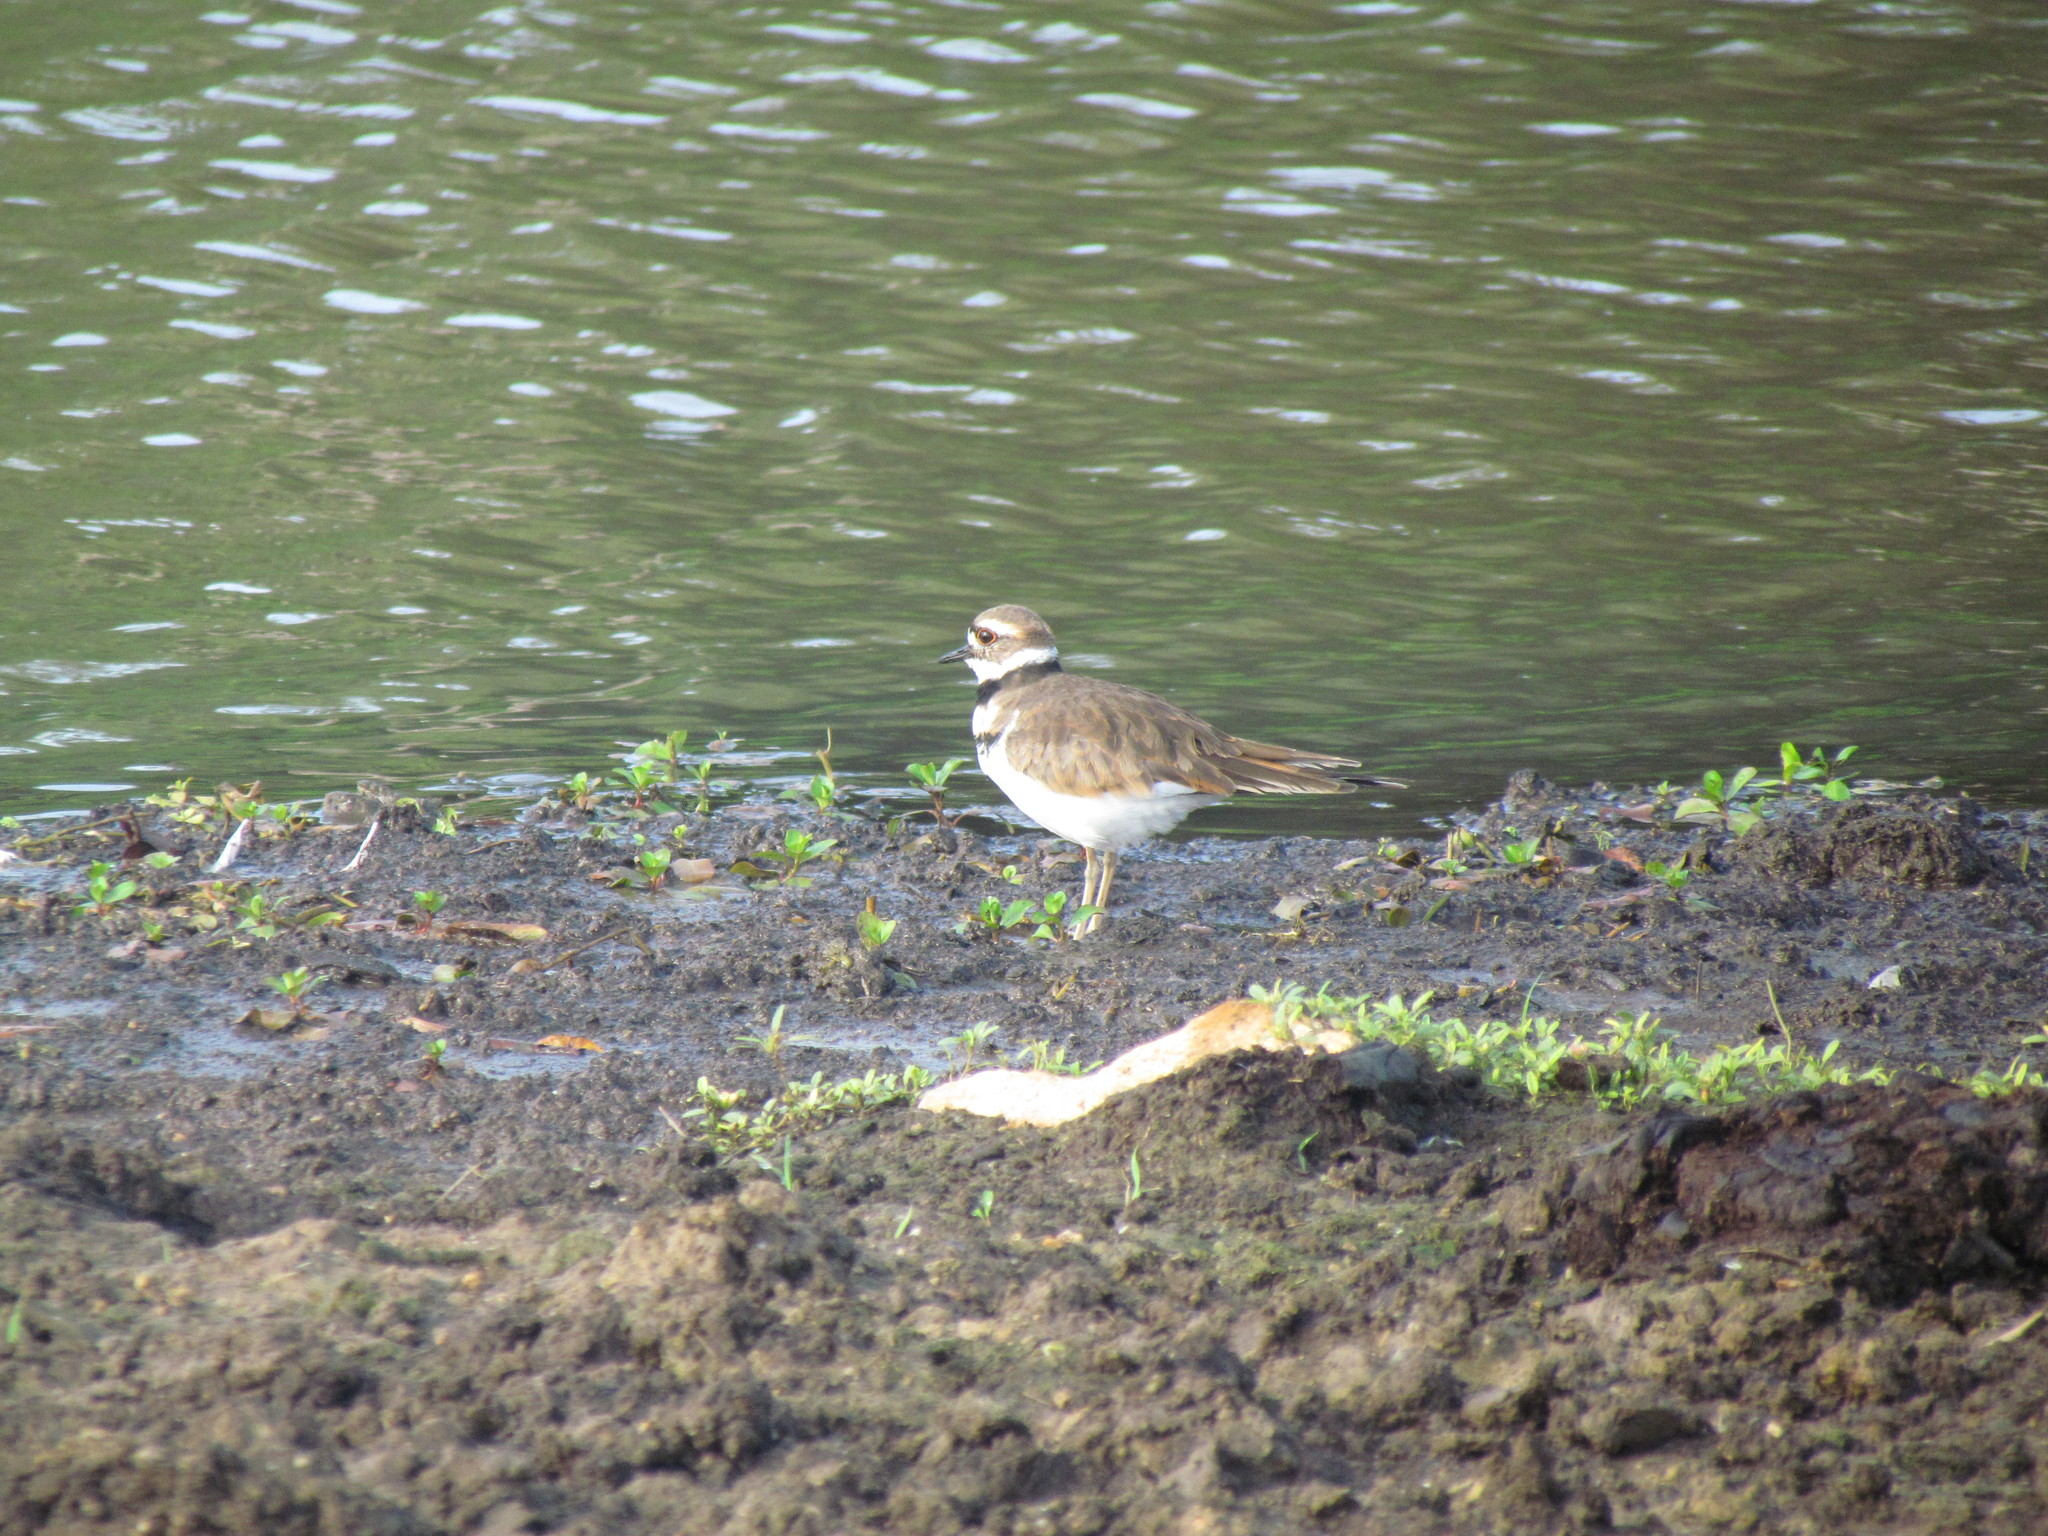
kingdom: Animalia
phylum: Chordata
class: Aves
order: Charadriiformes
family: Charadriidae
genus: Charadrius
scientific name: Charadrius vociferus
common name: Killdeer
